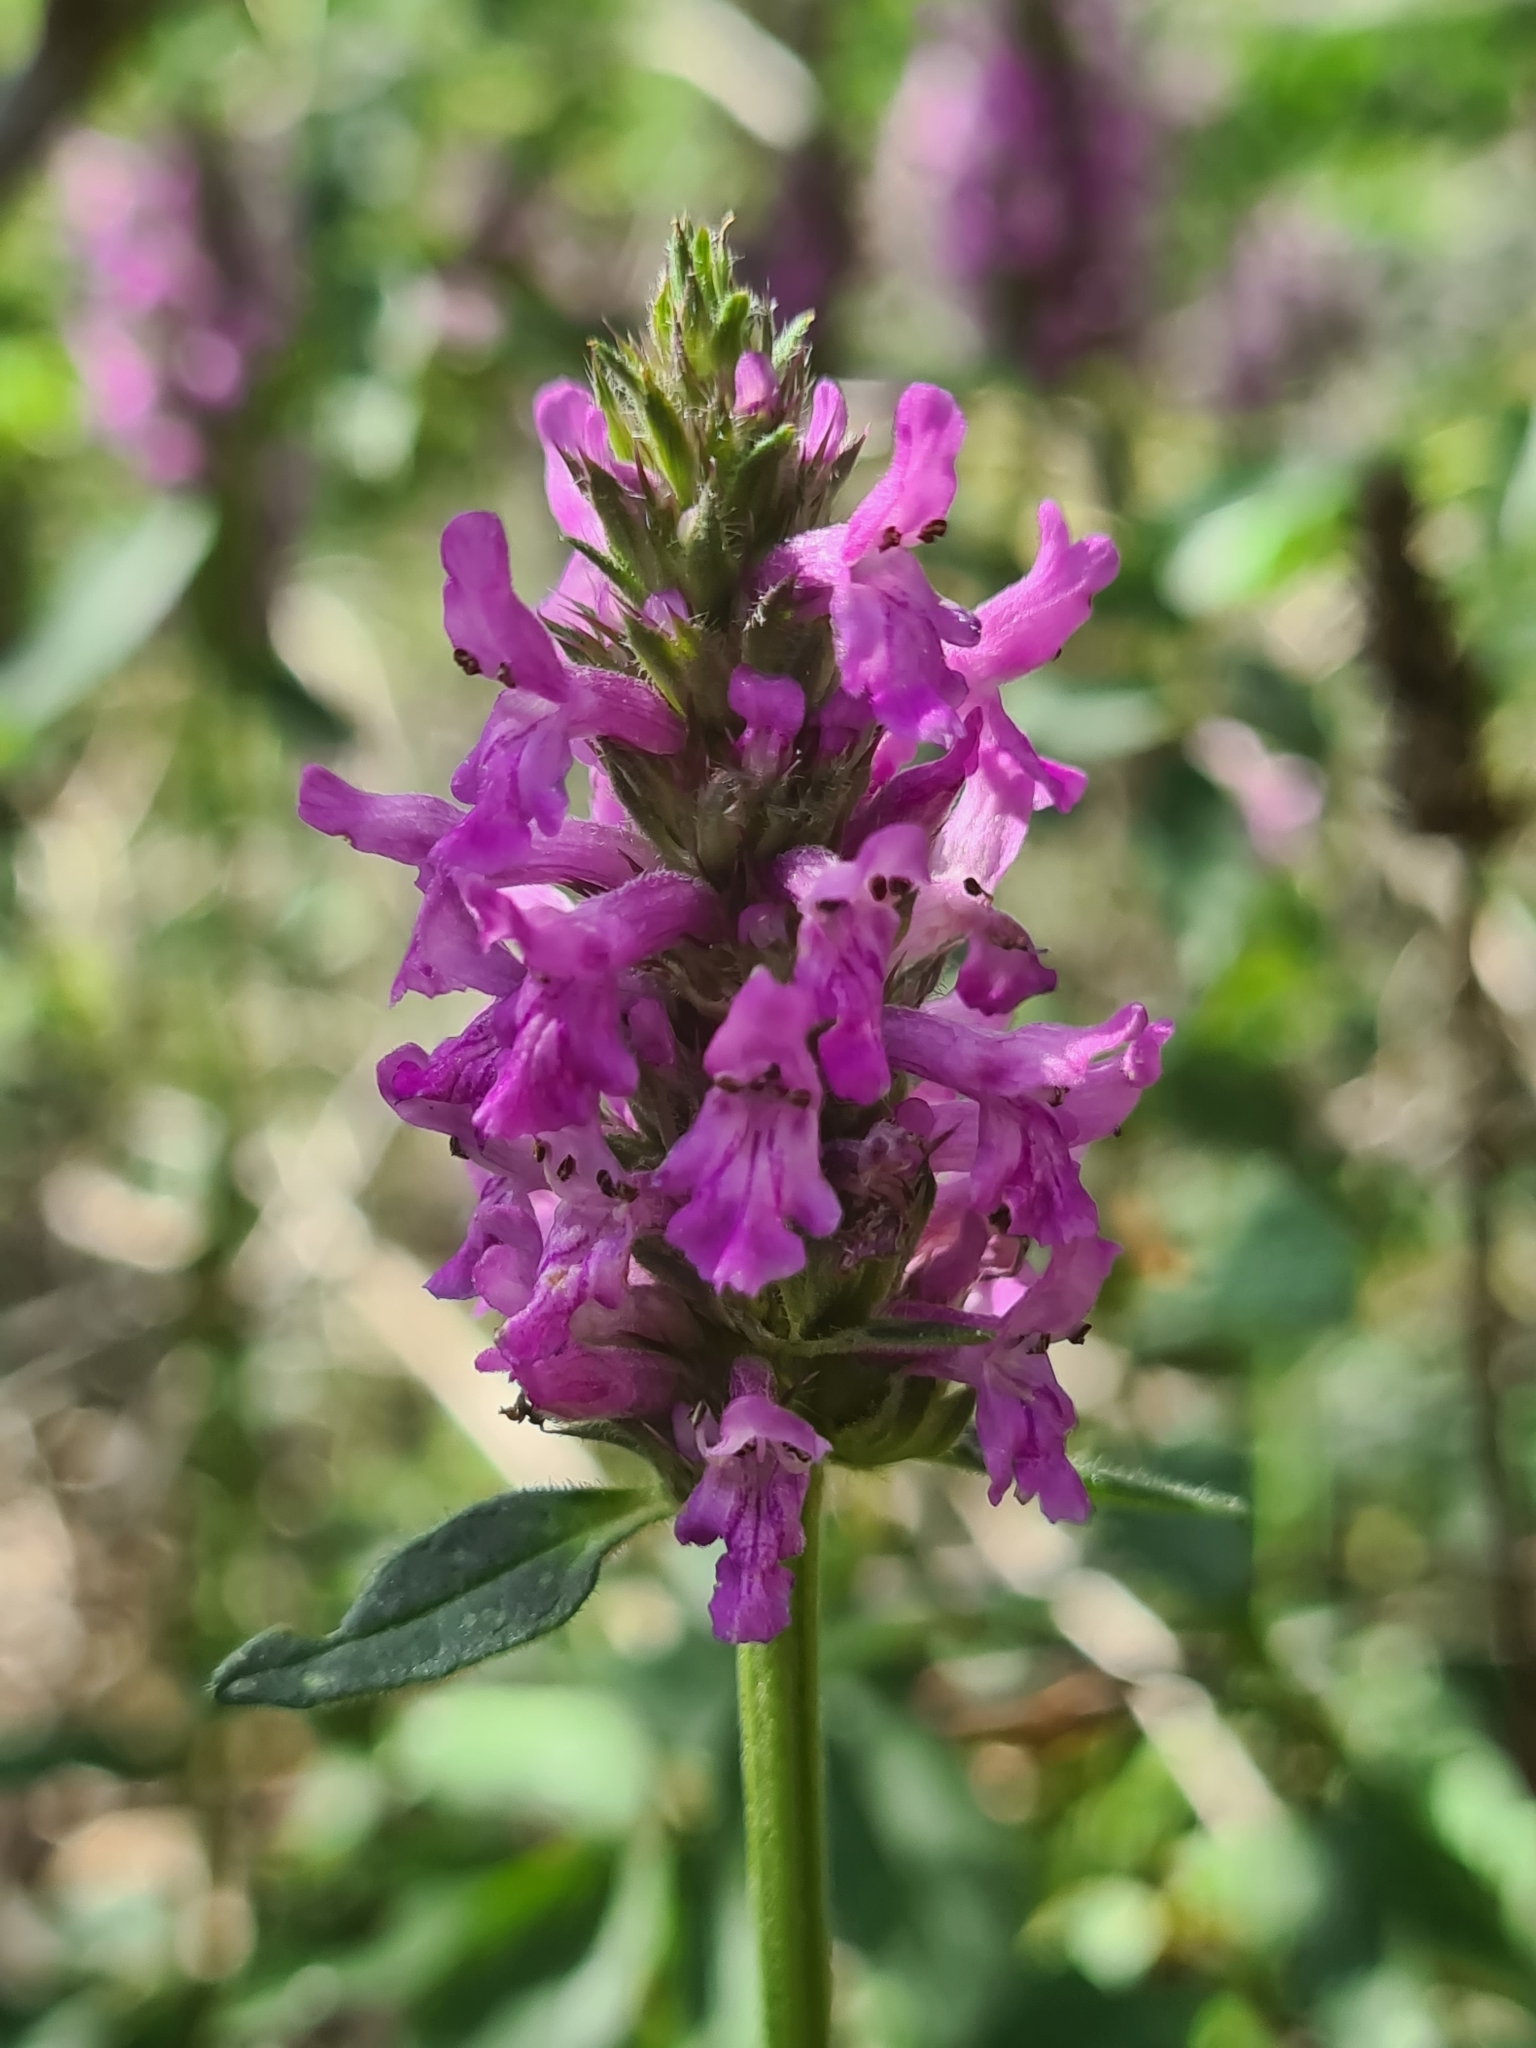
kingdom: Plantae
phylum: Tracheophyta
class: Magnoliopsida
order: Lamiales
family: Lamiaceae
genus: Betonica
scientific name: Betonica officinalis
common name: Bishop's-wort
